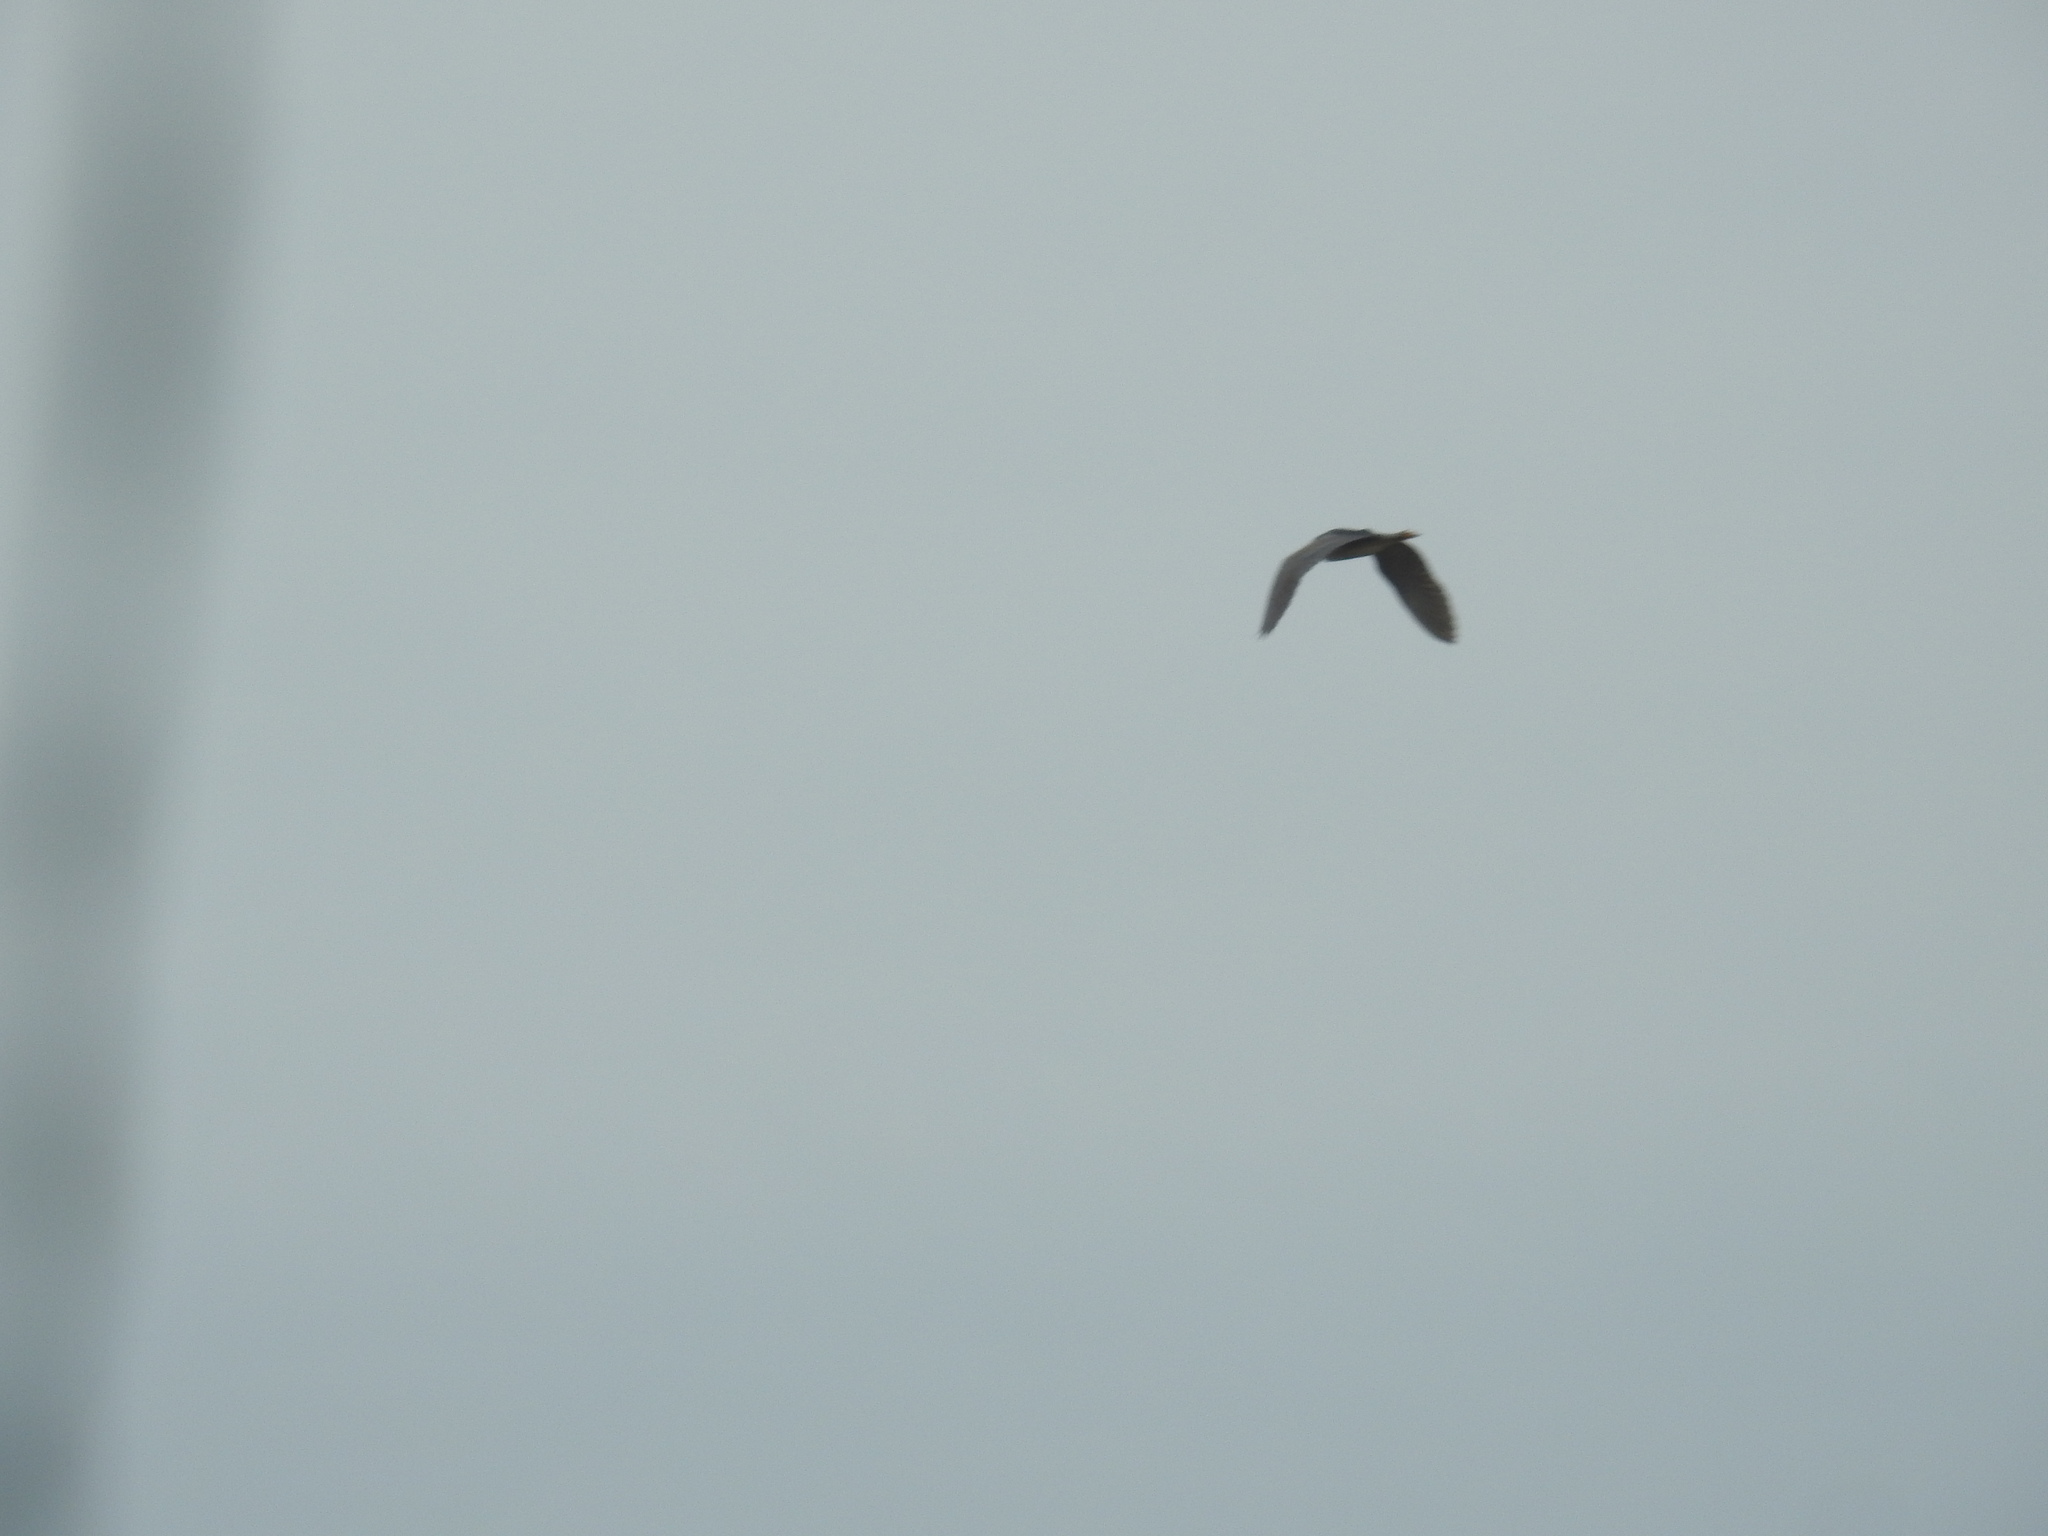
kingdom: Animalia
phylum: Chordata
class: Aves
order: Pelecaniformes
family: Ardeidae
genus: Nycticorax
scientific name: Nycticorax nycticorax
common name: Black-crowned night heron
